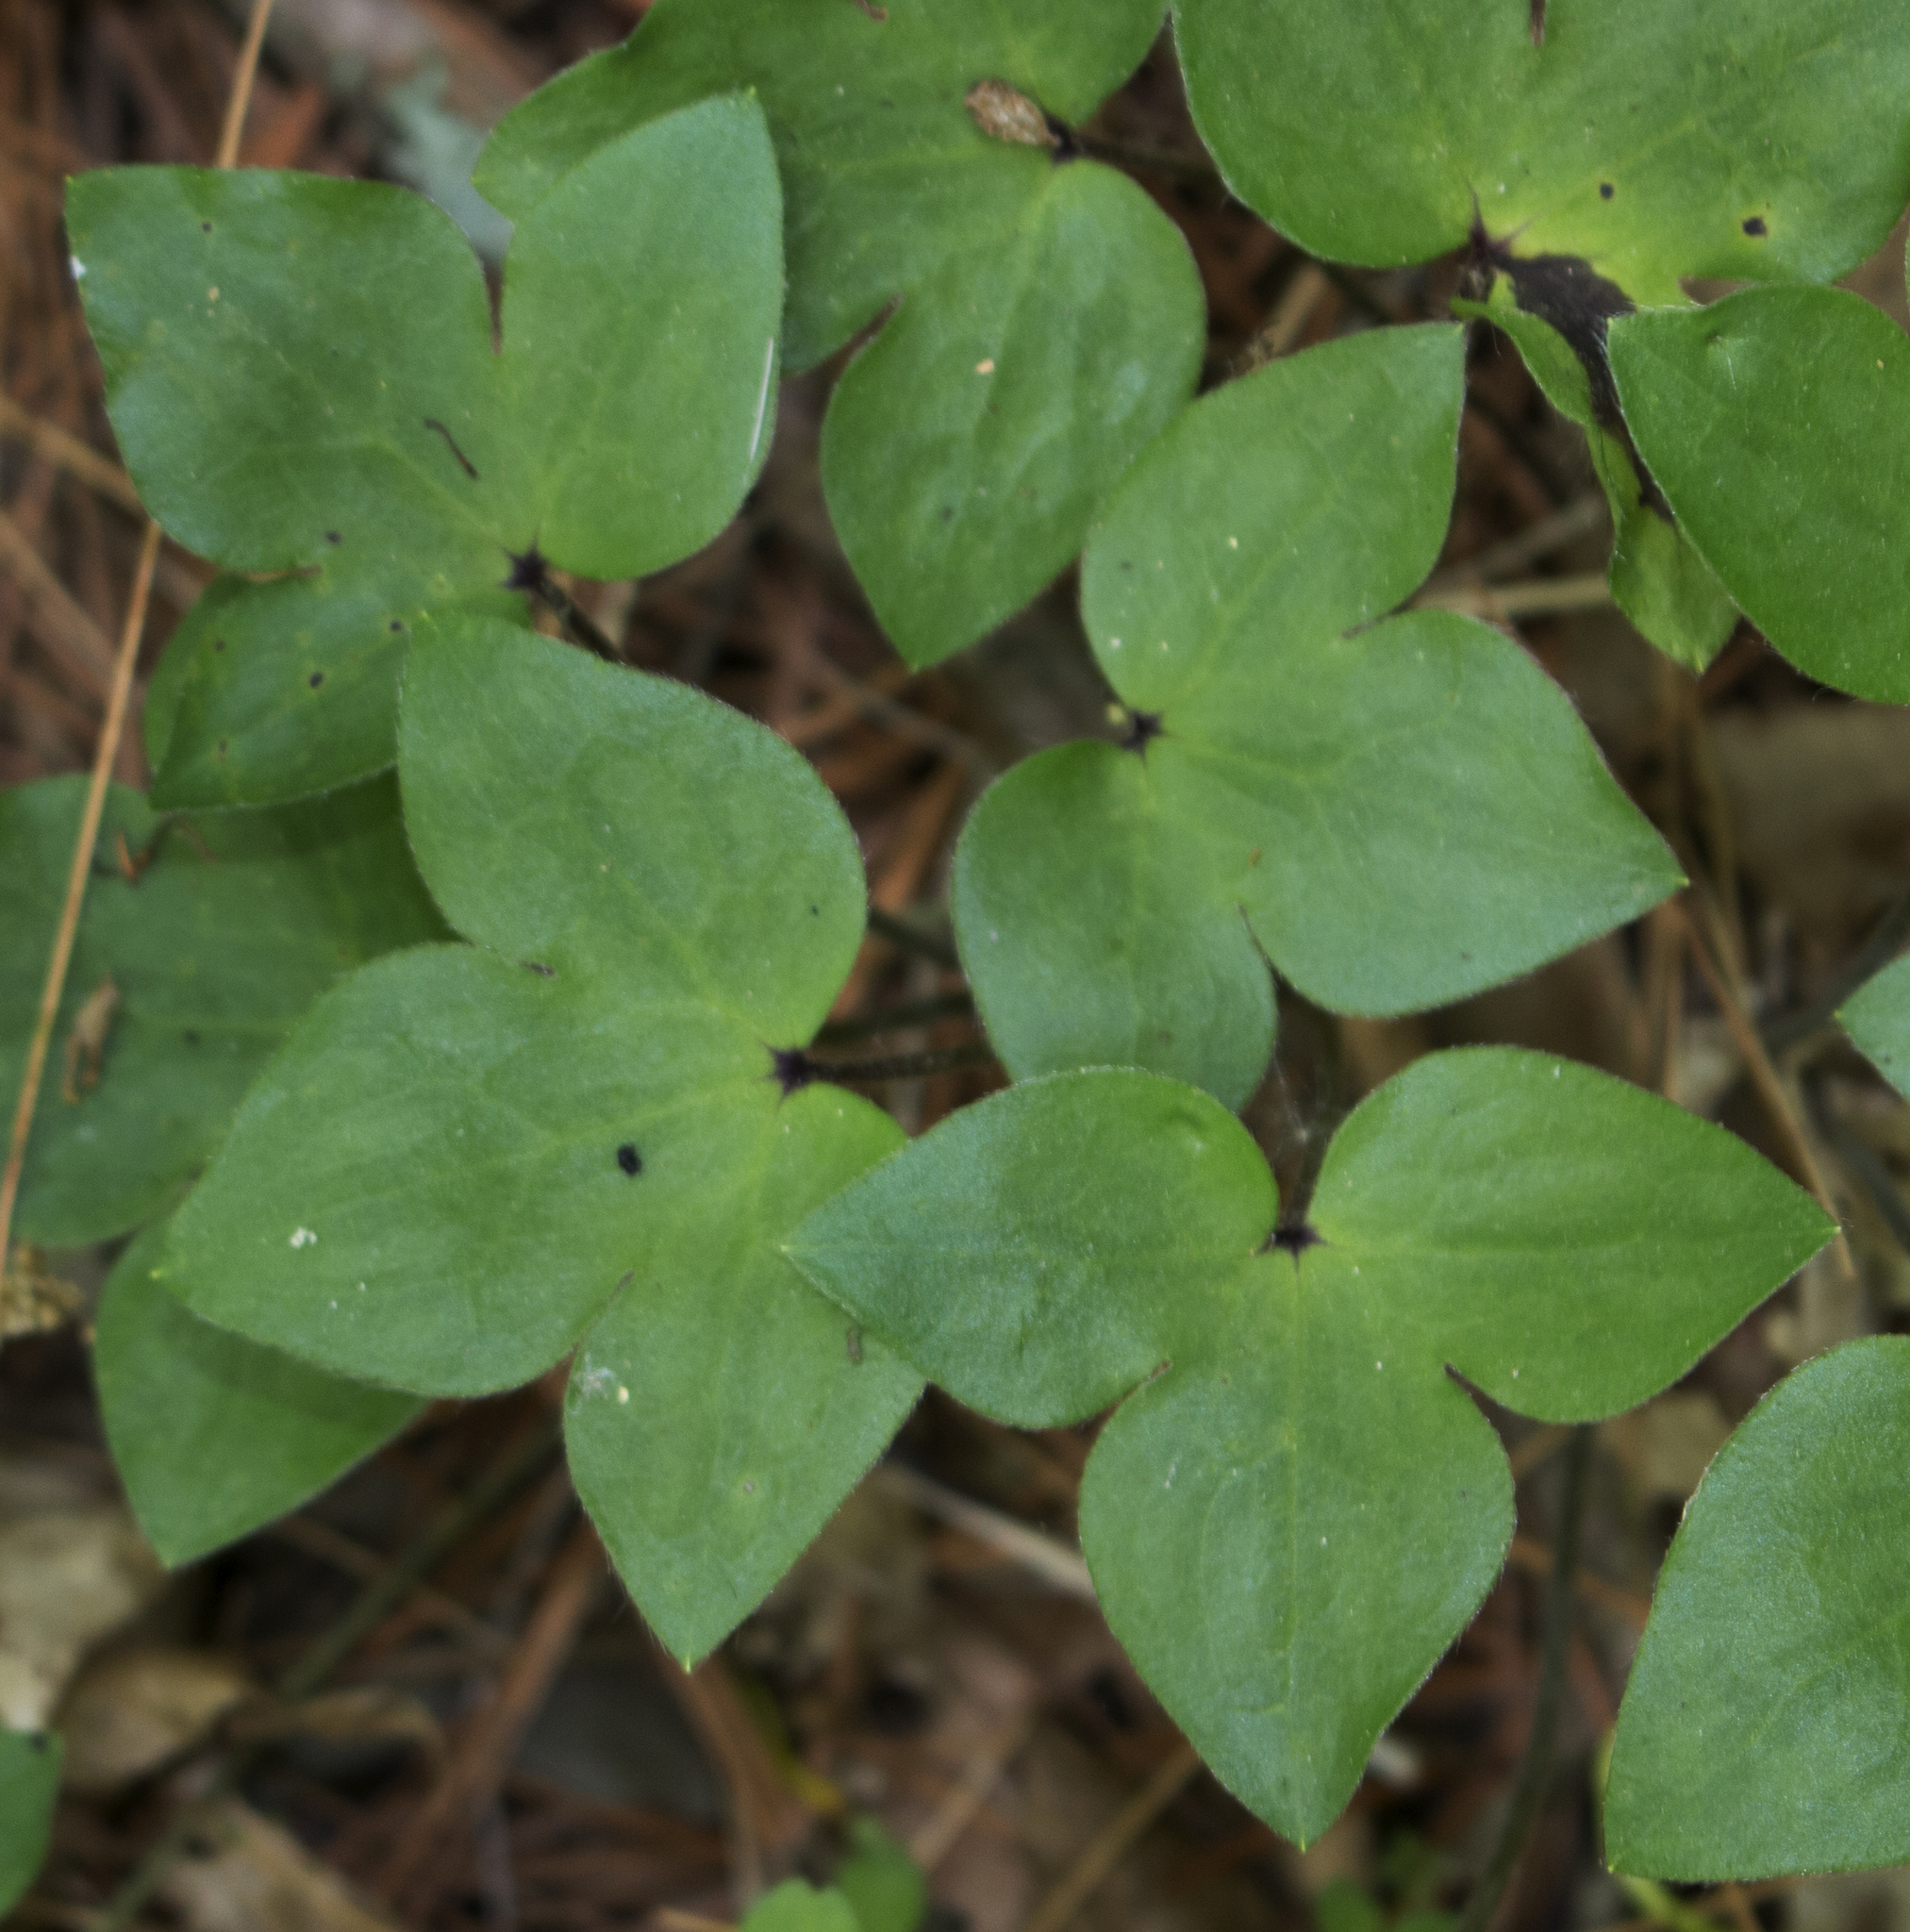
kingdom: Plantae
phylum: Tracheophyta
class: Magnoliopsida
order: Ranunculales
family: Ranunculaceae
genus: Hepatica
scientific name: Hepatica acutiloba
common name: Sharp-lobed hepatica
